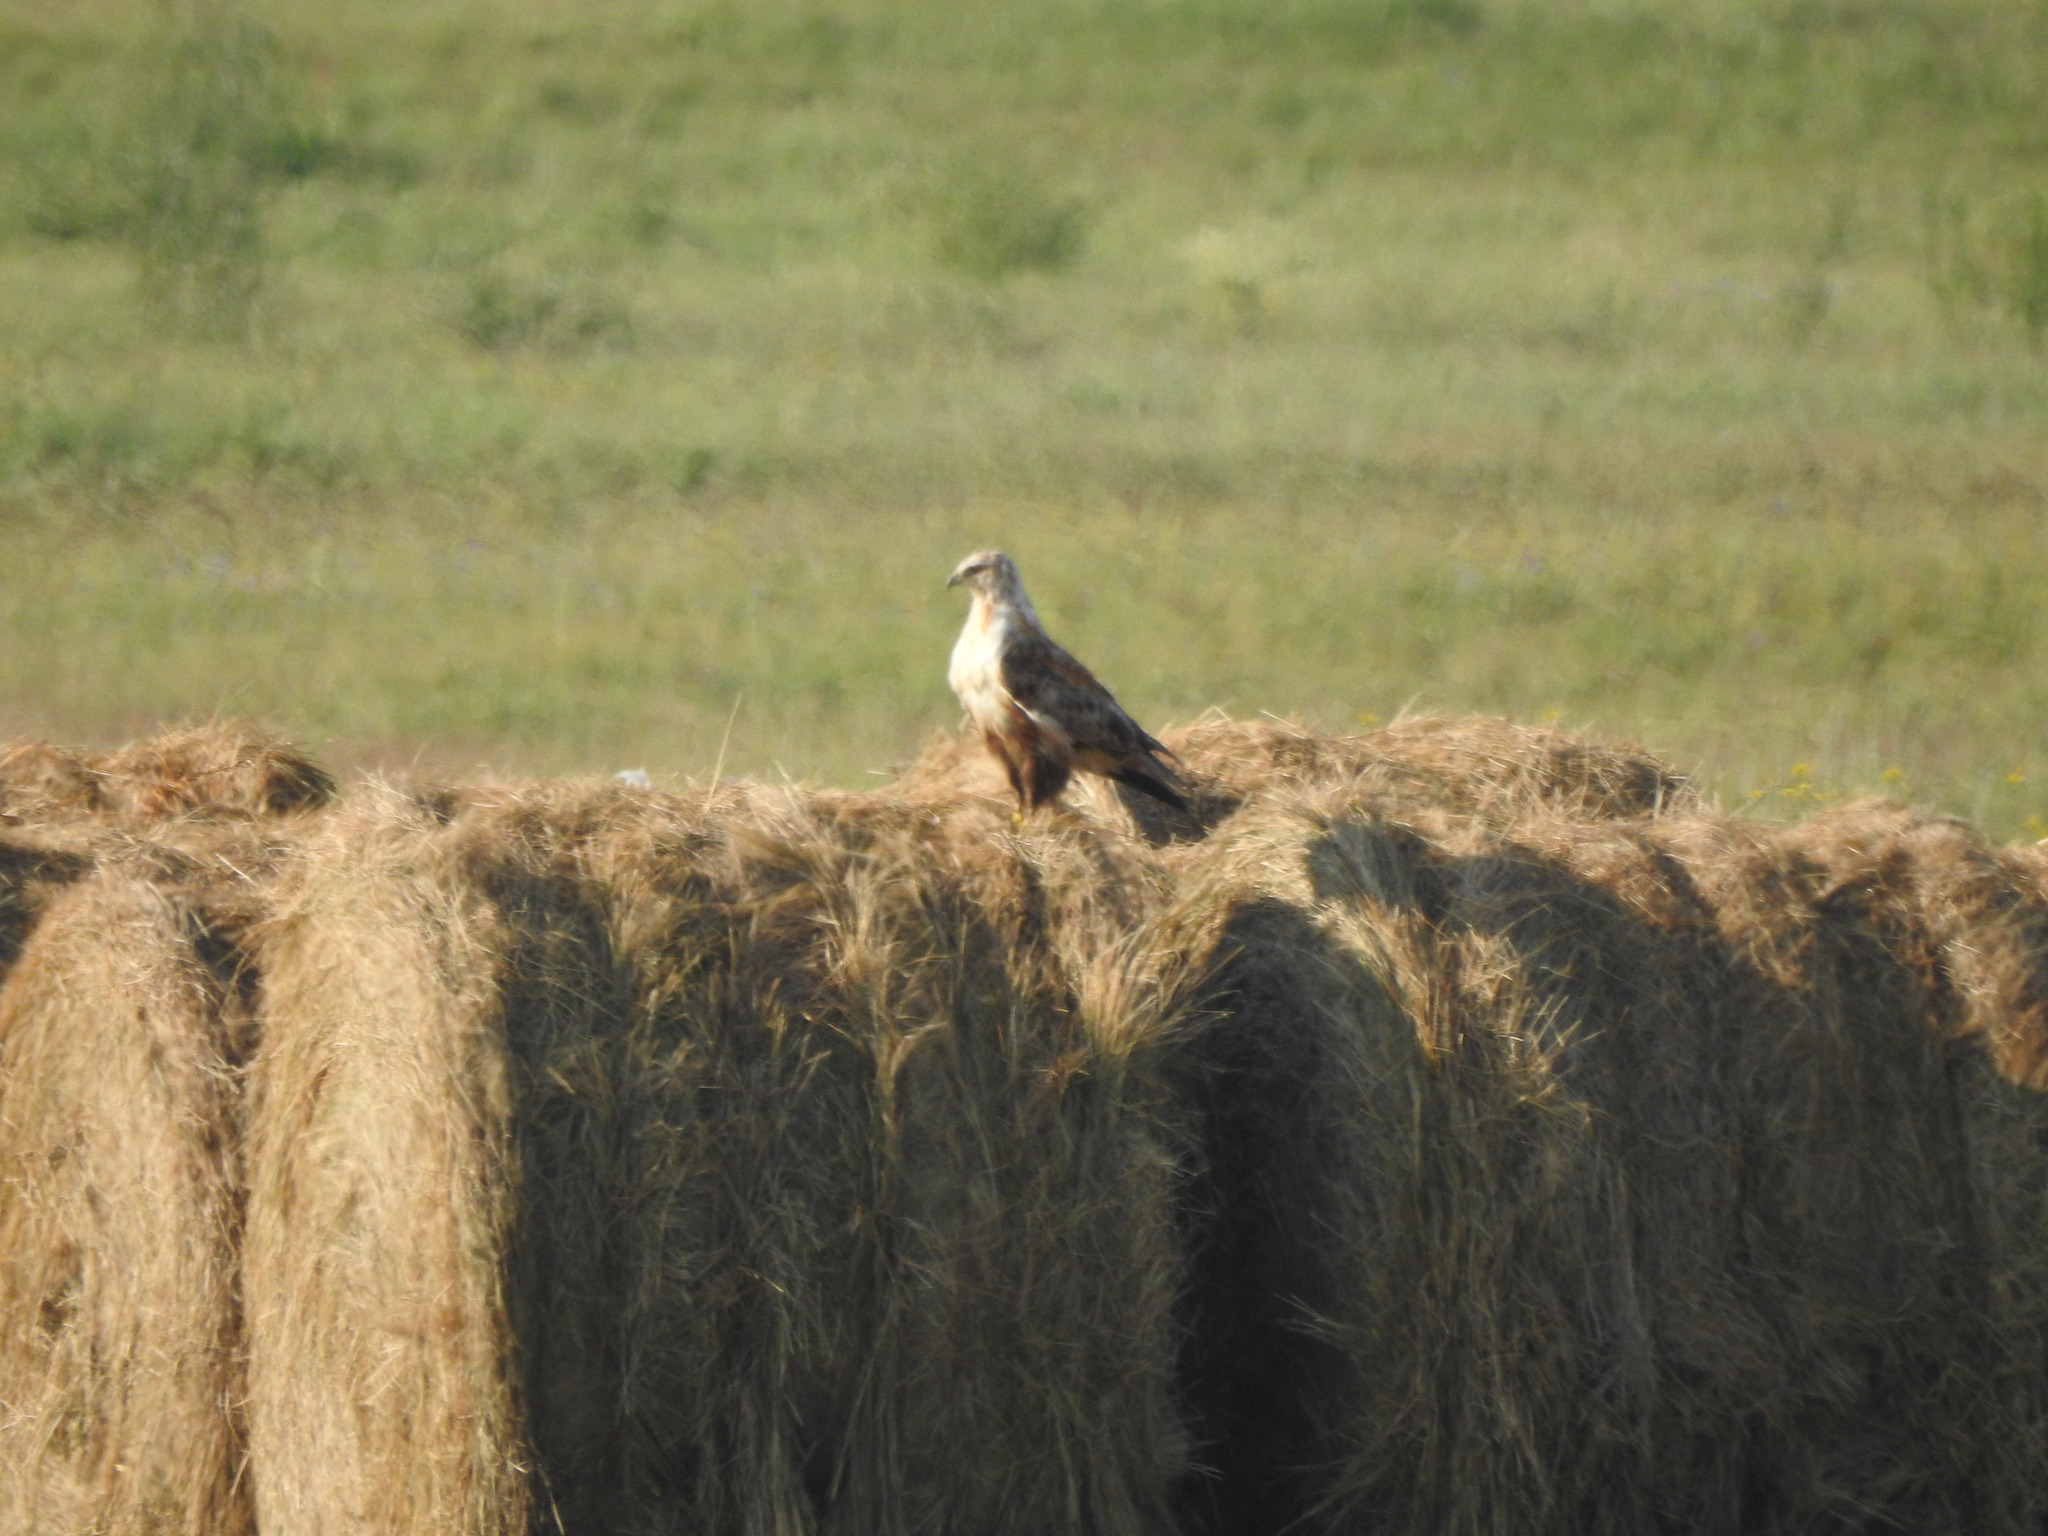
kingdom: Animalia
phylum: Chordata
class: Aves
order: Accipitriformes
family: Accipitridae
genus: Buteo
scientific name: Buteo hemilasius
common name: Upland buzzard
